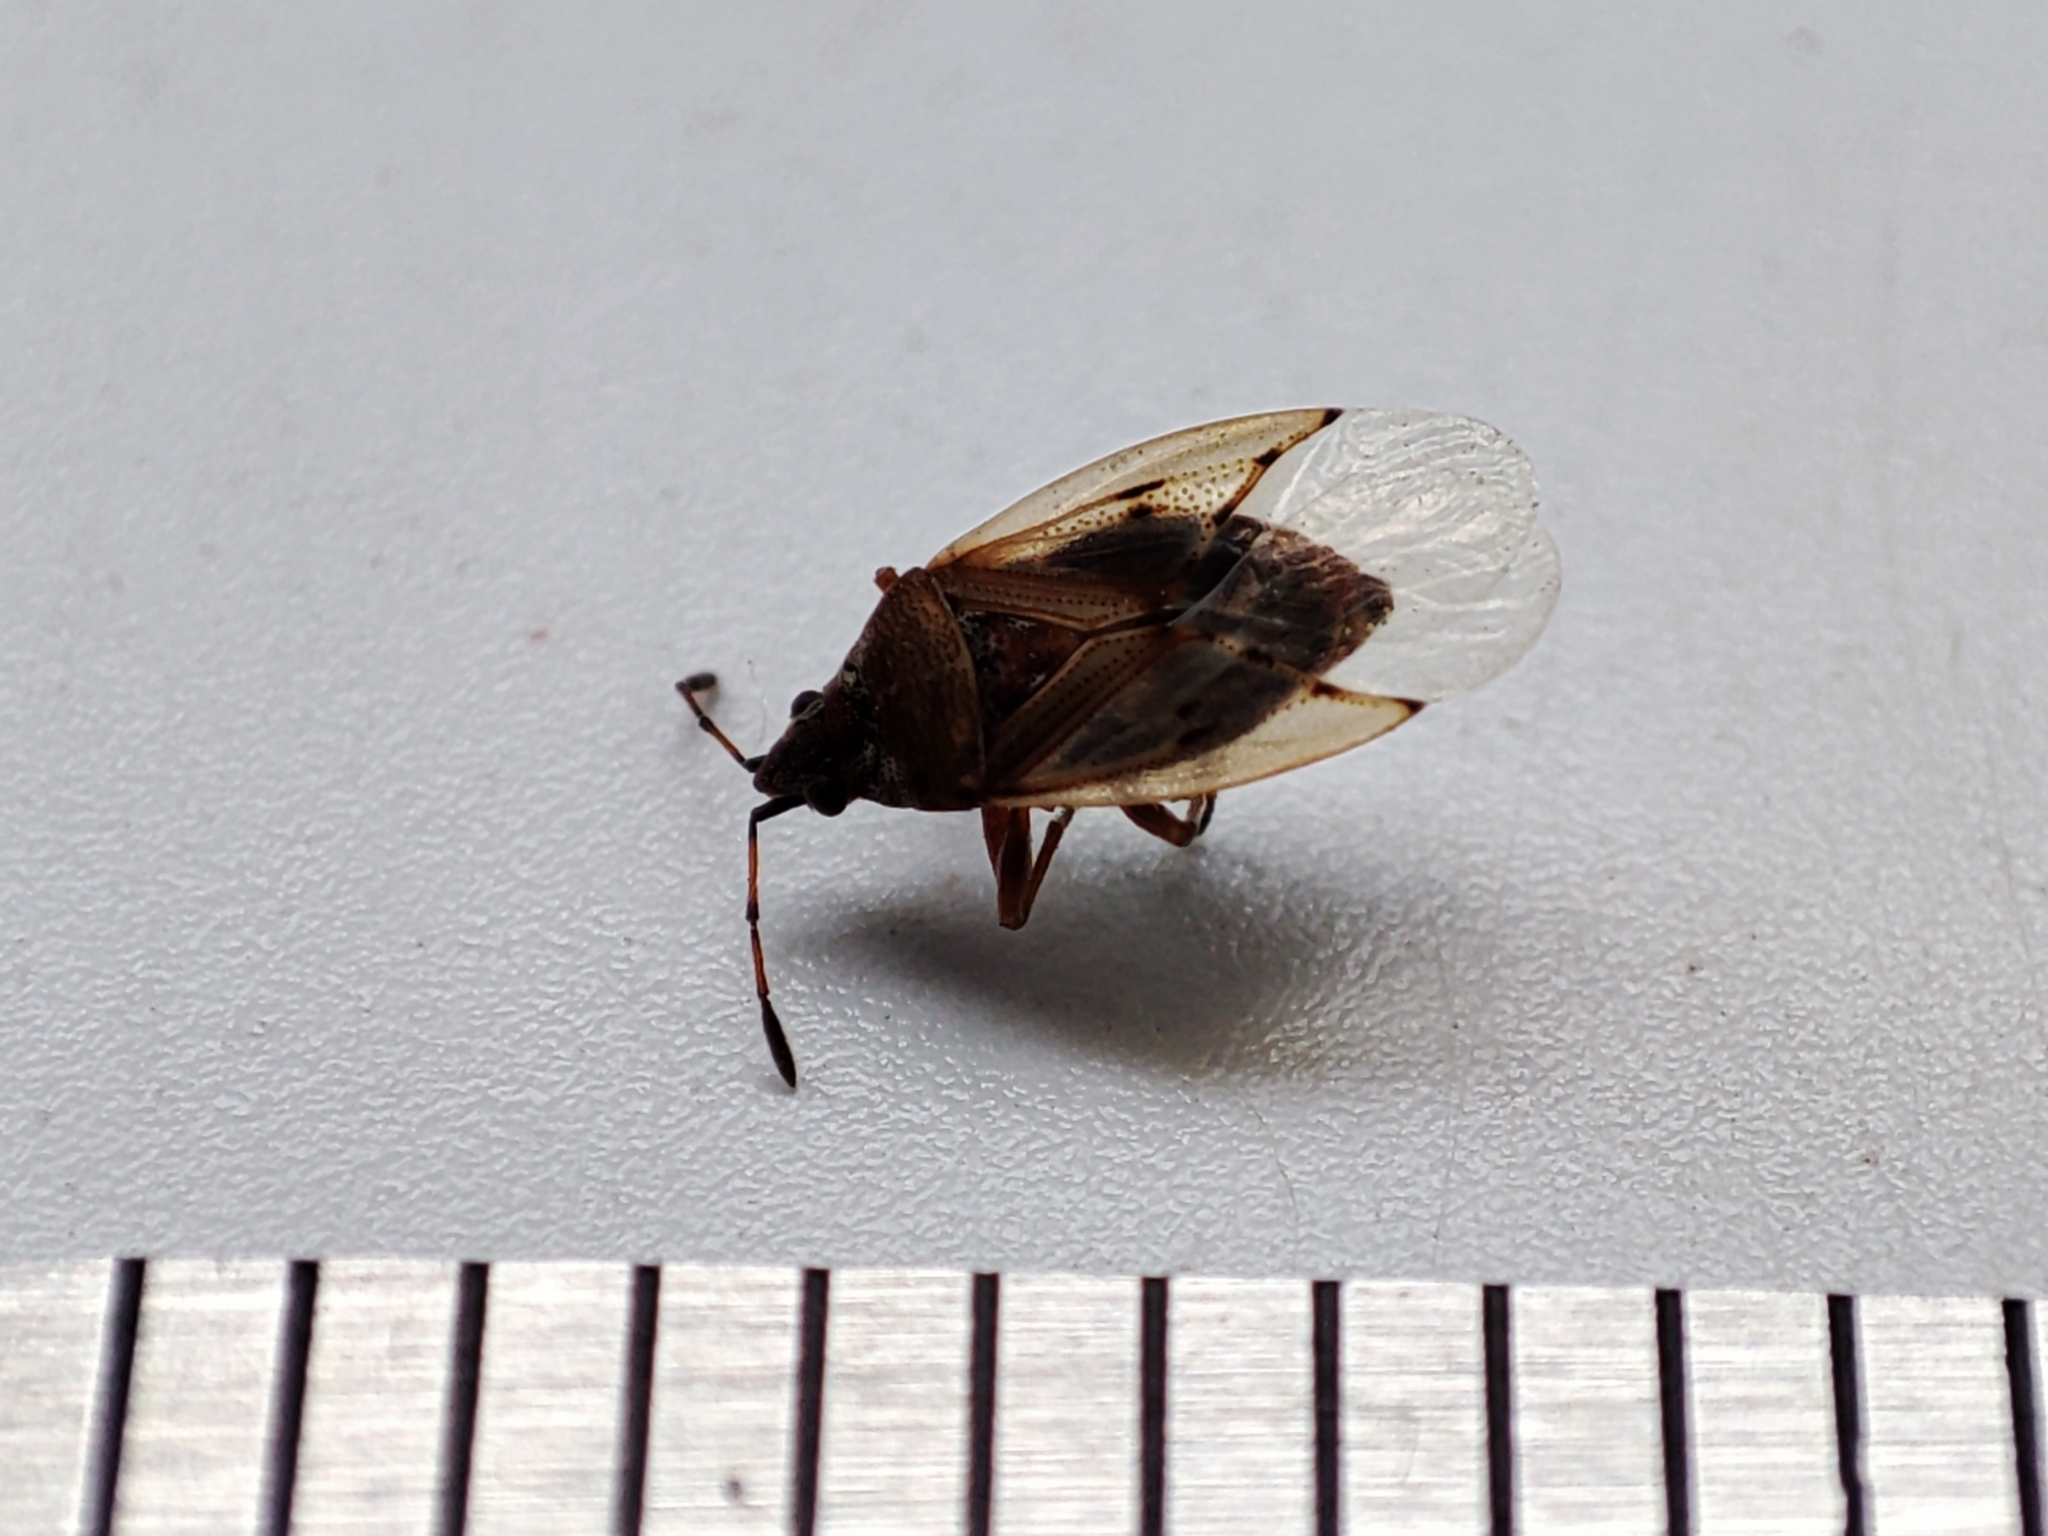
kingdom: Animalia
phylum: Arthropoda
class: Insecta
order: Hemiptera
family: Lygaeidae
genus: Kleidocerys
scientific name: Kleidocerys resedae
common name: Birch catkin bug
